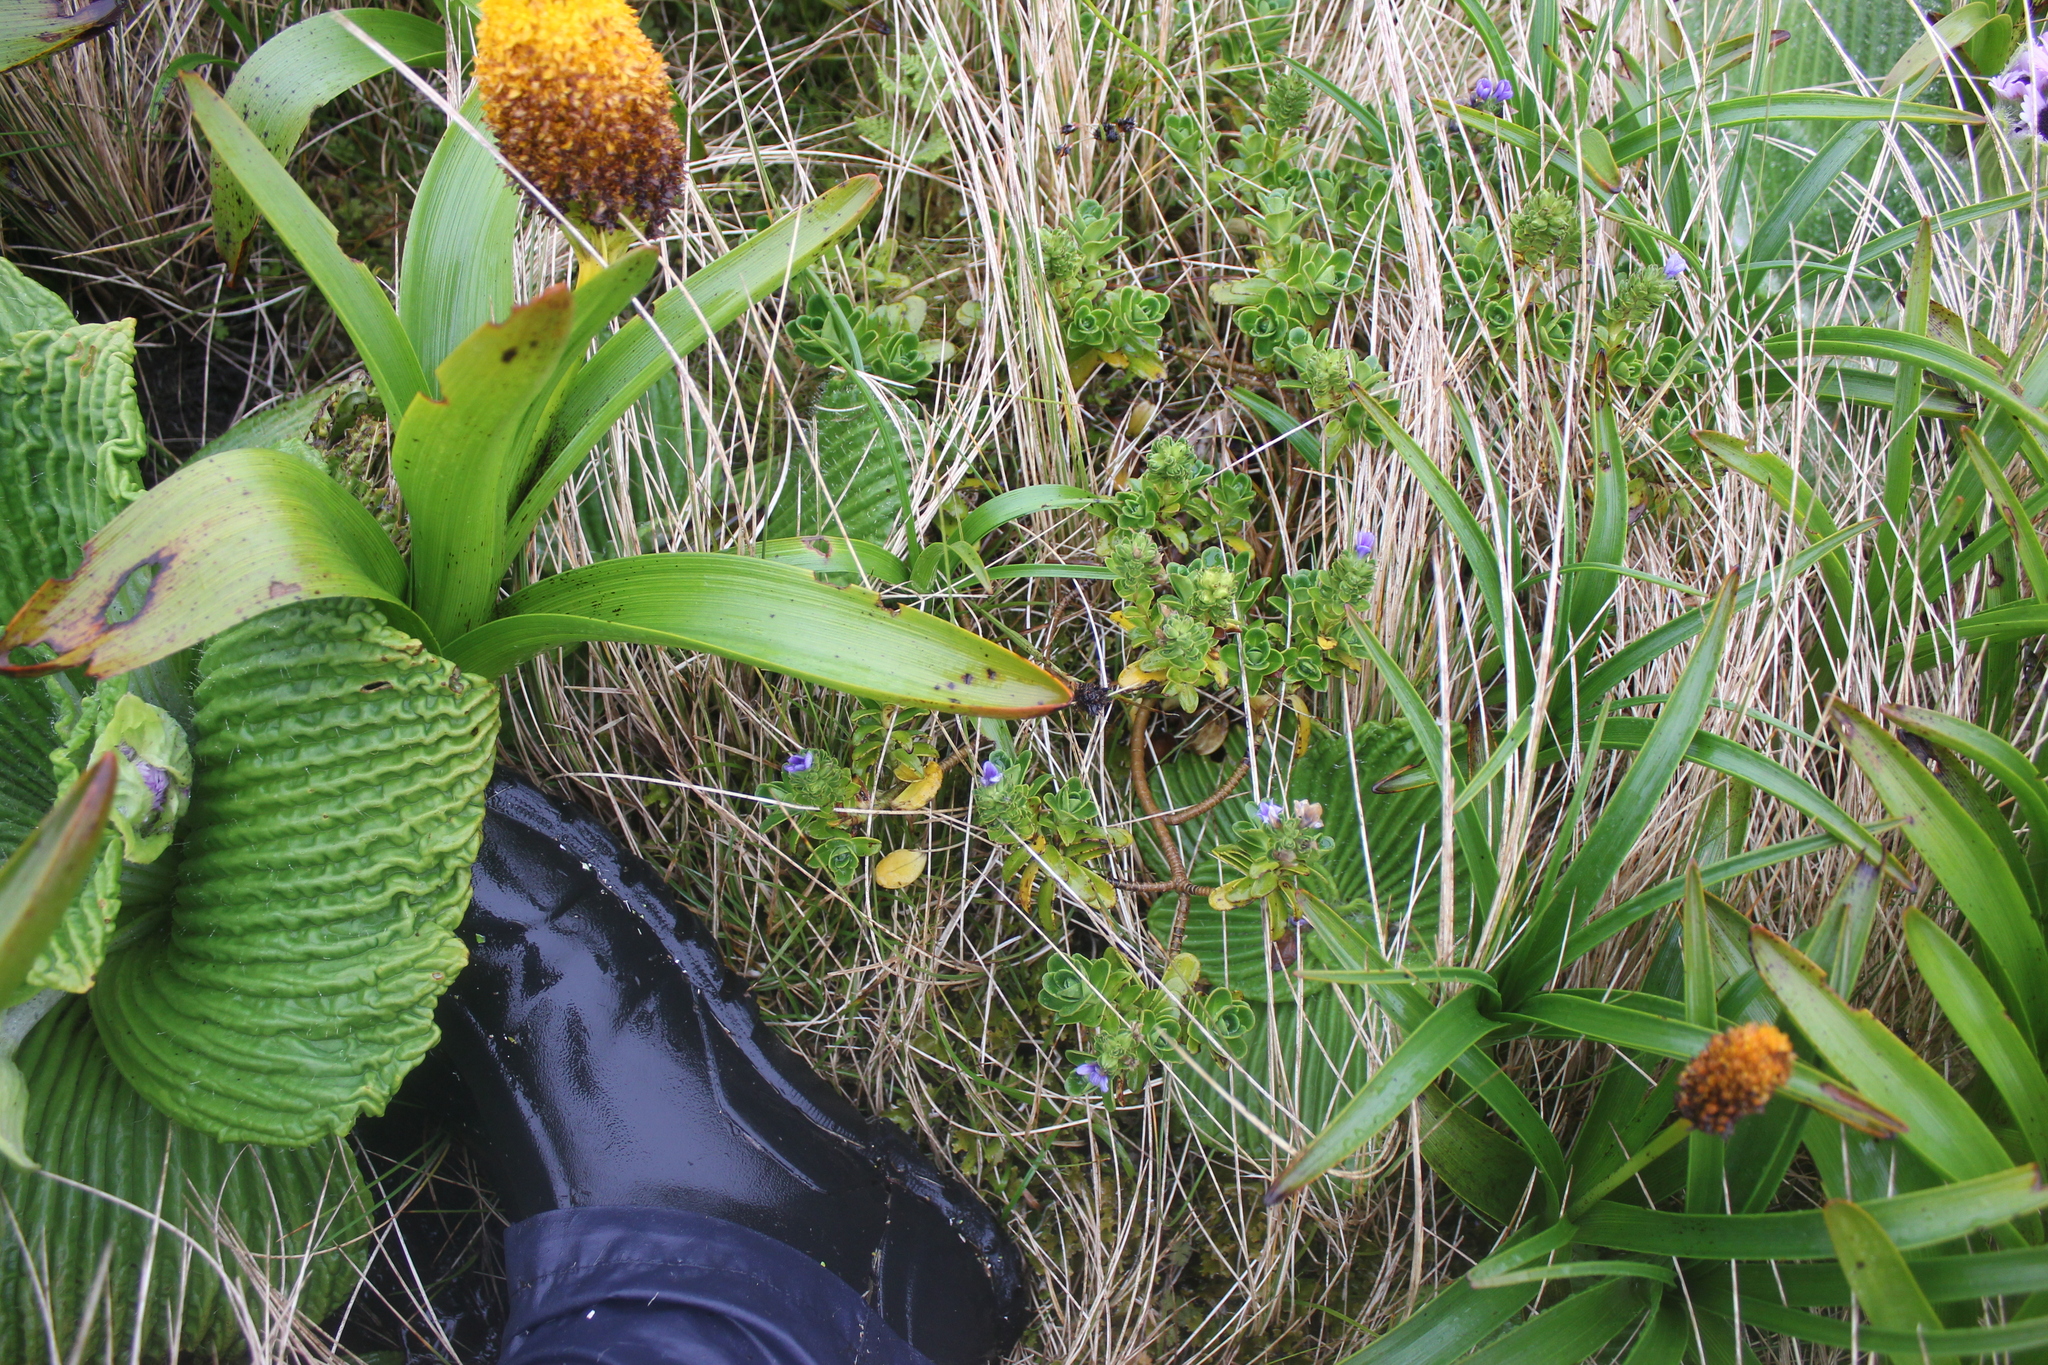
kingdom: Plantae
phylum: Tracheophyta
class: Magnoliopsida
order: Lamiales
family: Plantaginaceae
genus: Veronica
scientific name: Veronica benthamii
